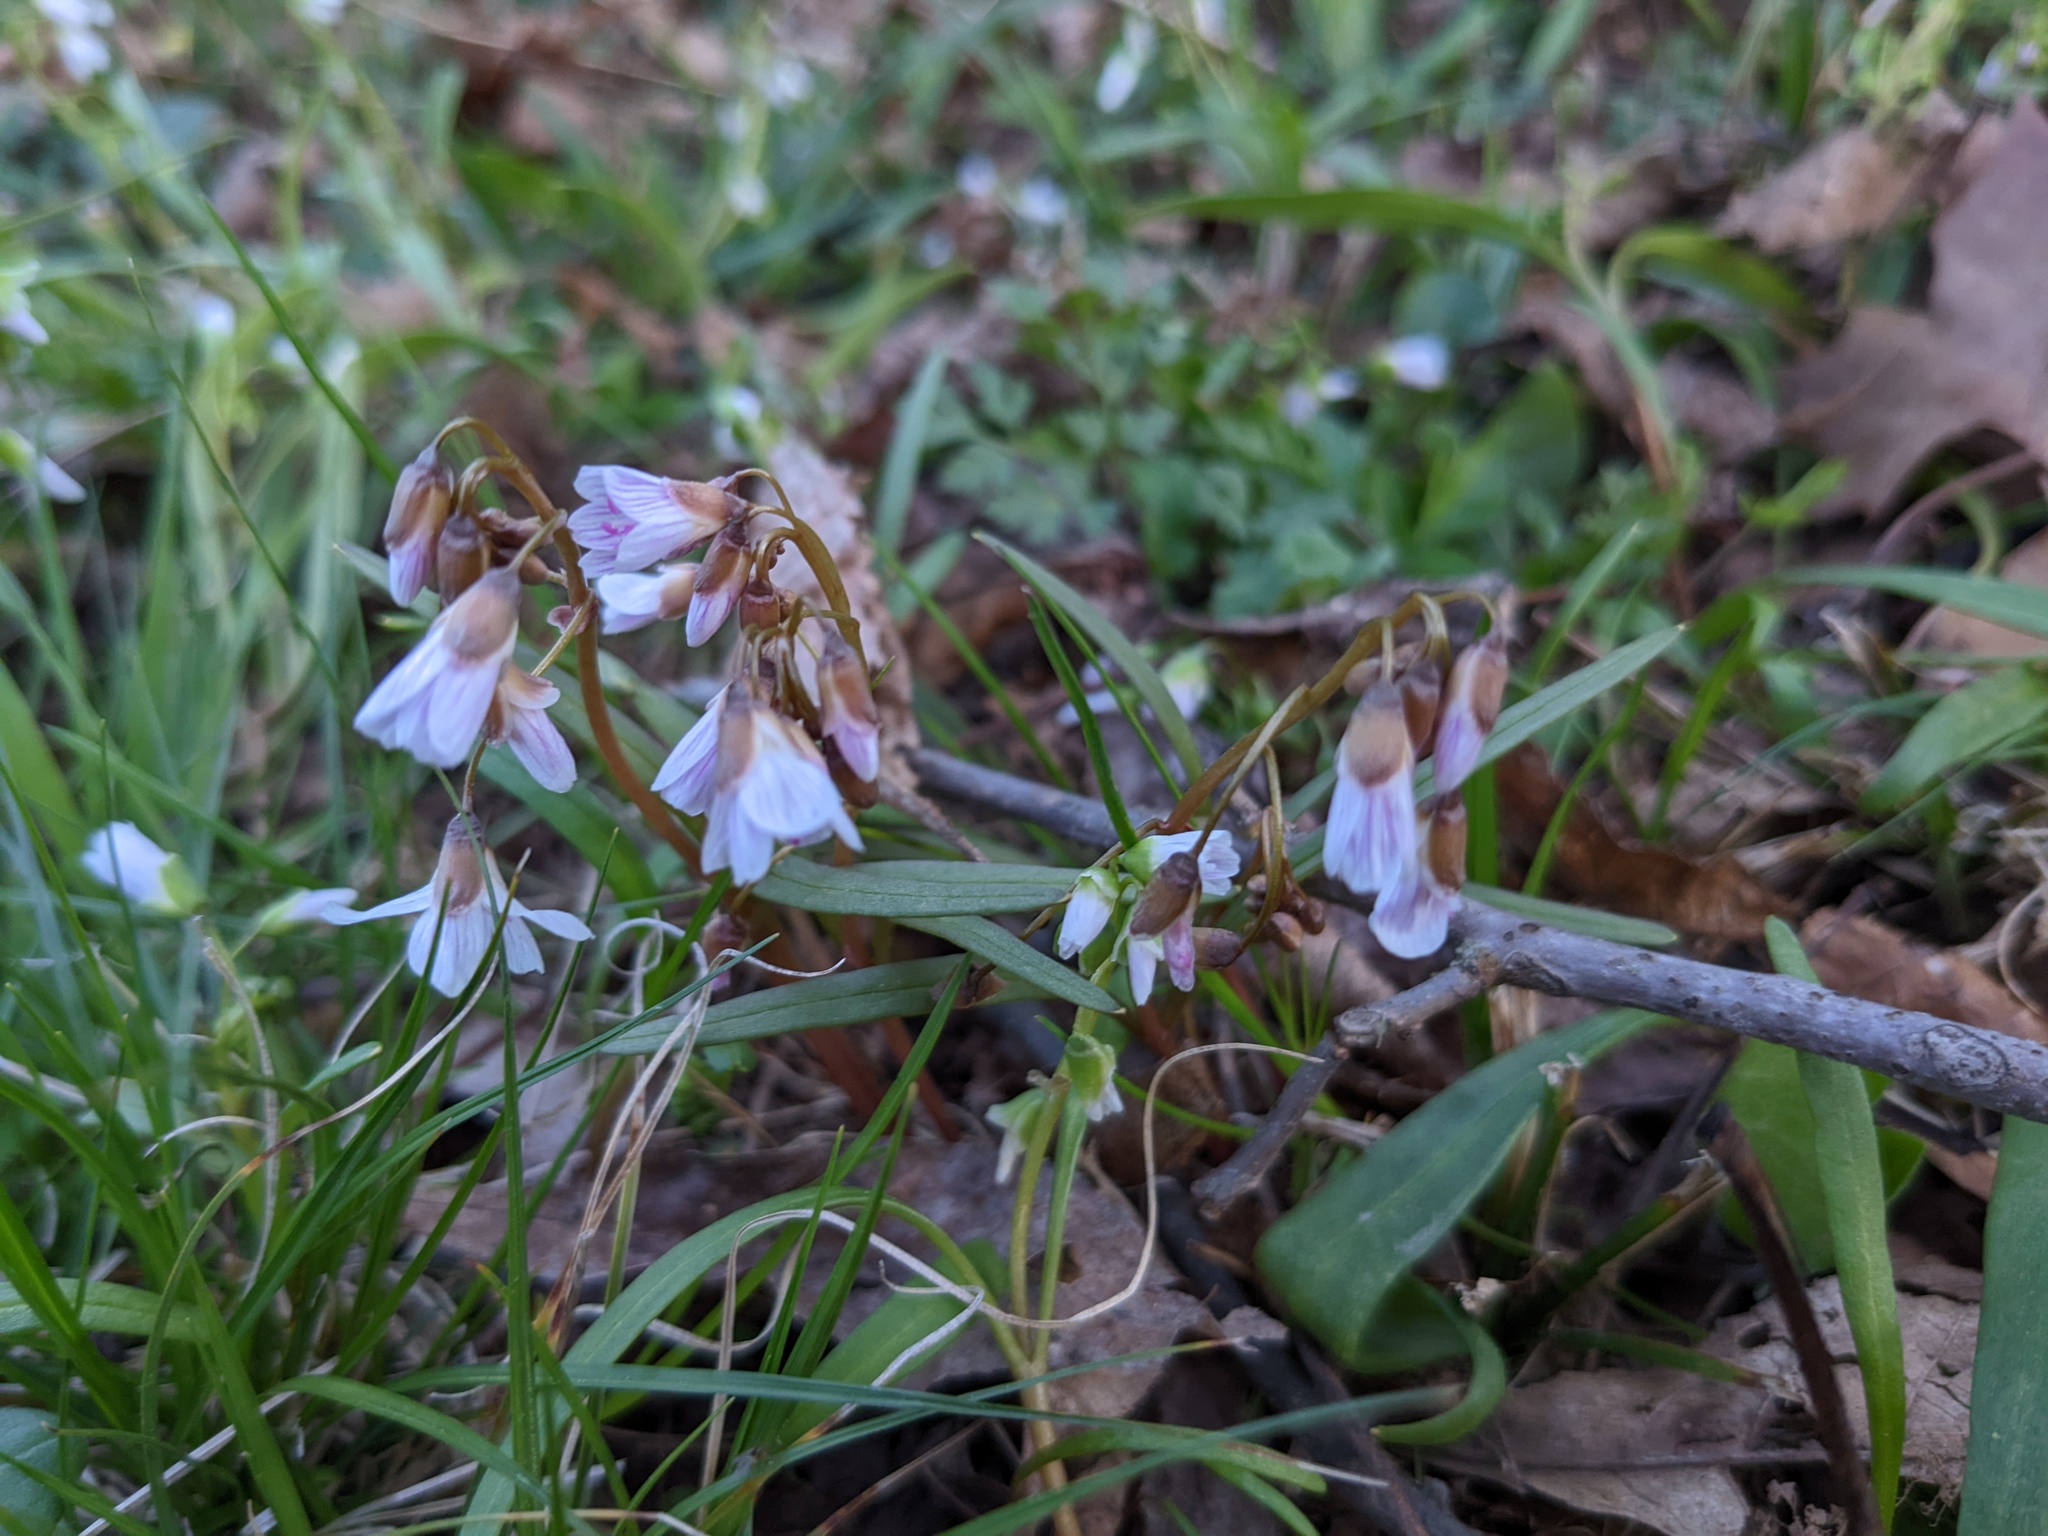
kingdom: Plantae
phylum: Tracheophyta
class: Magnoliopsida
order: Caryophyllales
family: Montiaceae
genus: Claytonia
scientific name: Claytonia virginica
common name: Virginia springbeauty
